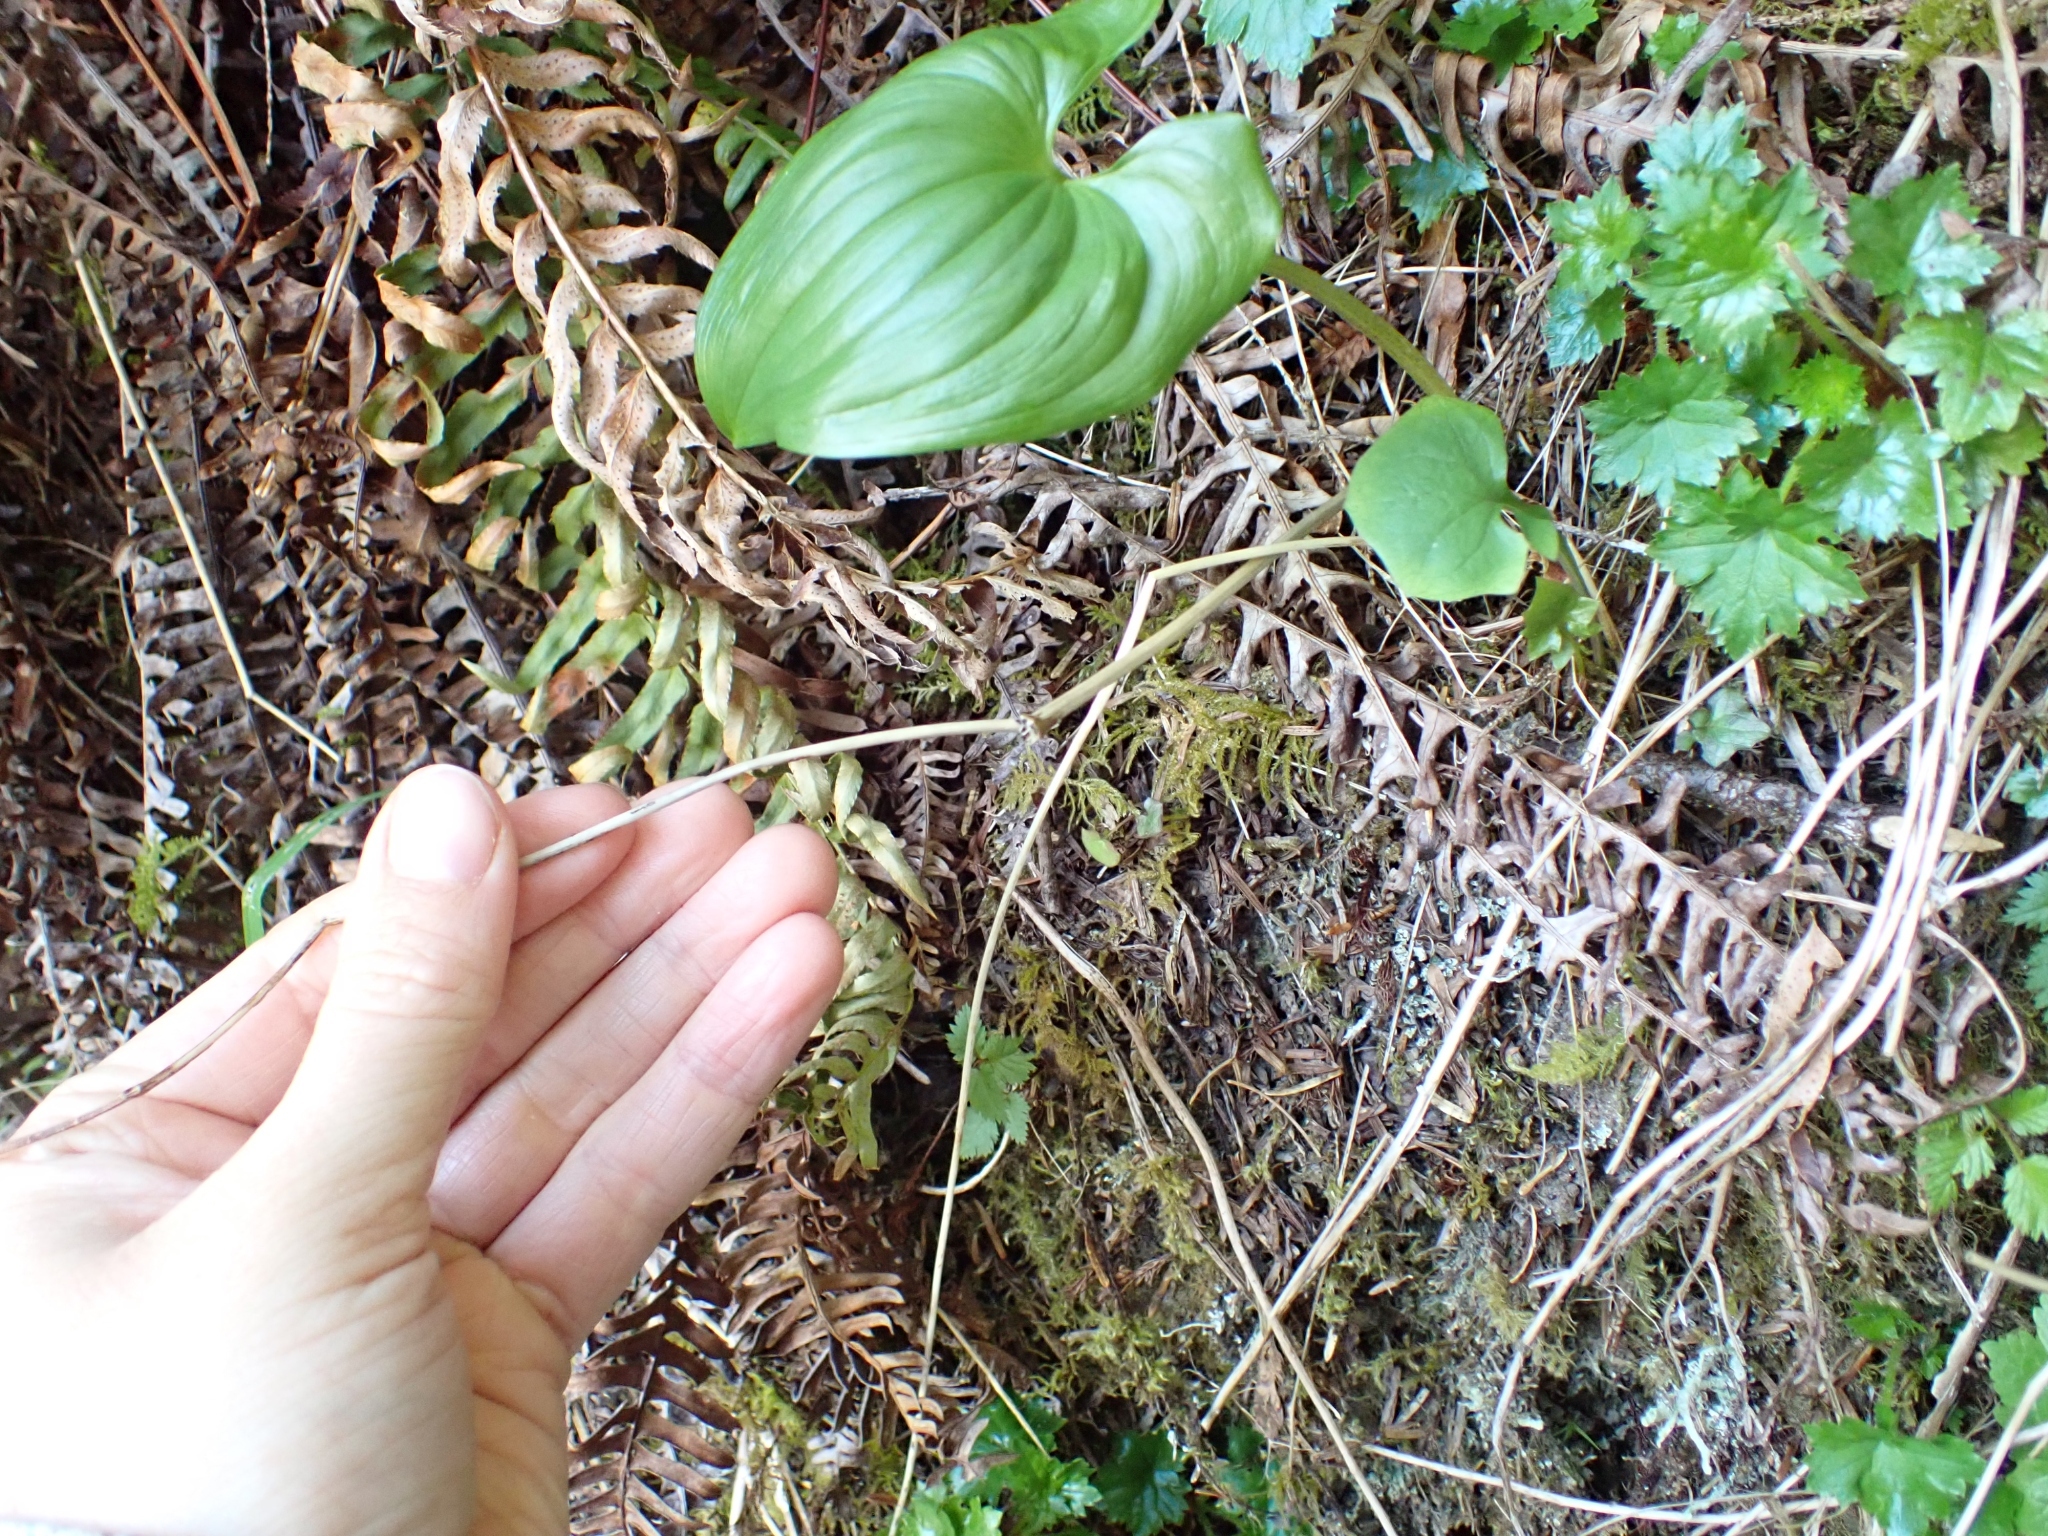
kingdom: Plantae
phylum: Tracheophyta
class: Liliopsida
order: Asparagales
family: Asparagaceae
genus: Maianthemum
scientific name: Maianthemum dilatatum
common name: False lily-of-the-valley
